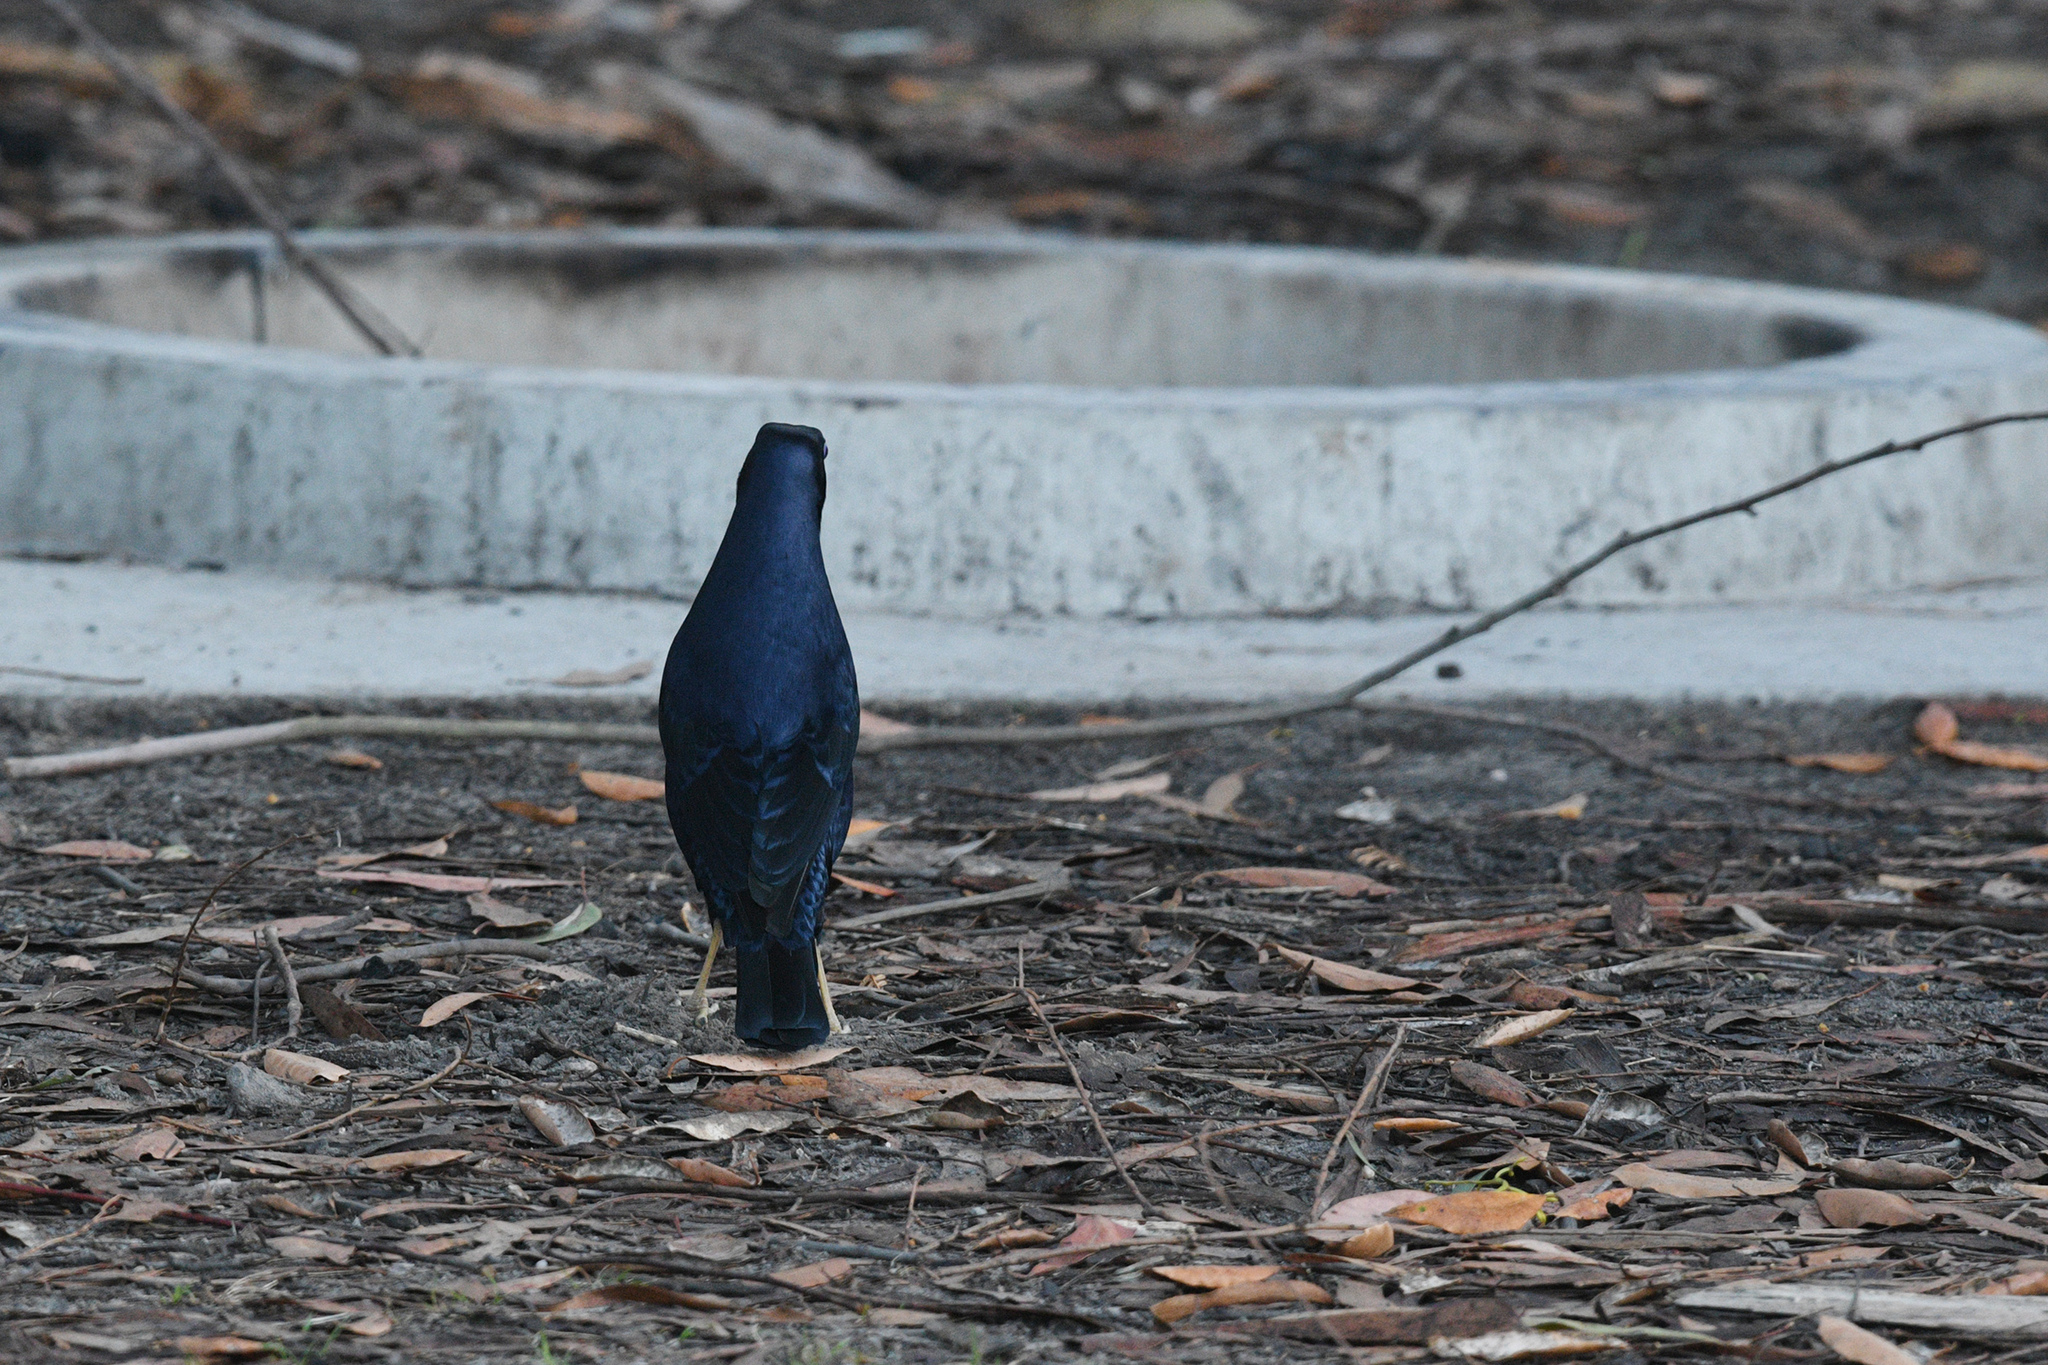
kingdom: Animalia
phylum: Chordata
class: Aves
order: Passeriformes
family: Ptilonorhynchidae
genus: Ptilonorhynchus
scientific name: Ptilonorhynchus violaceus
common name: Satin bowerbird
